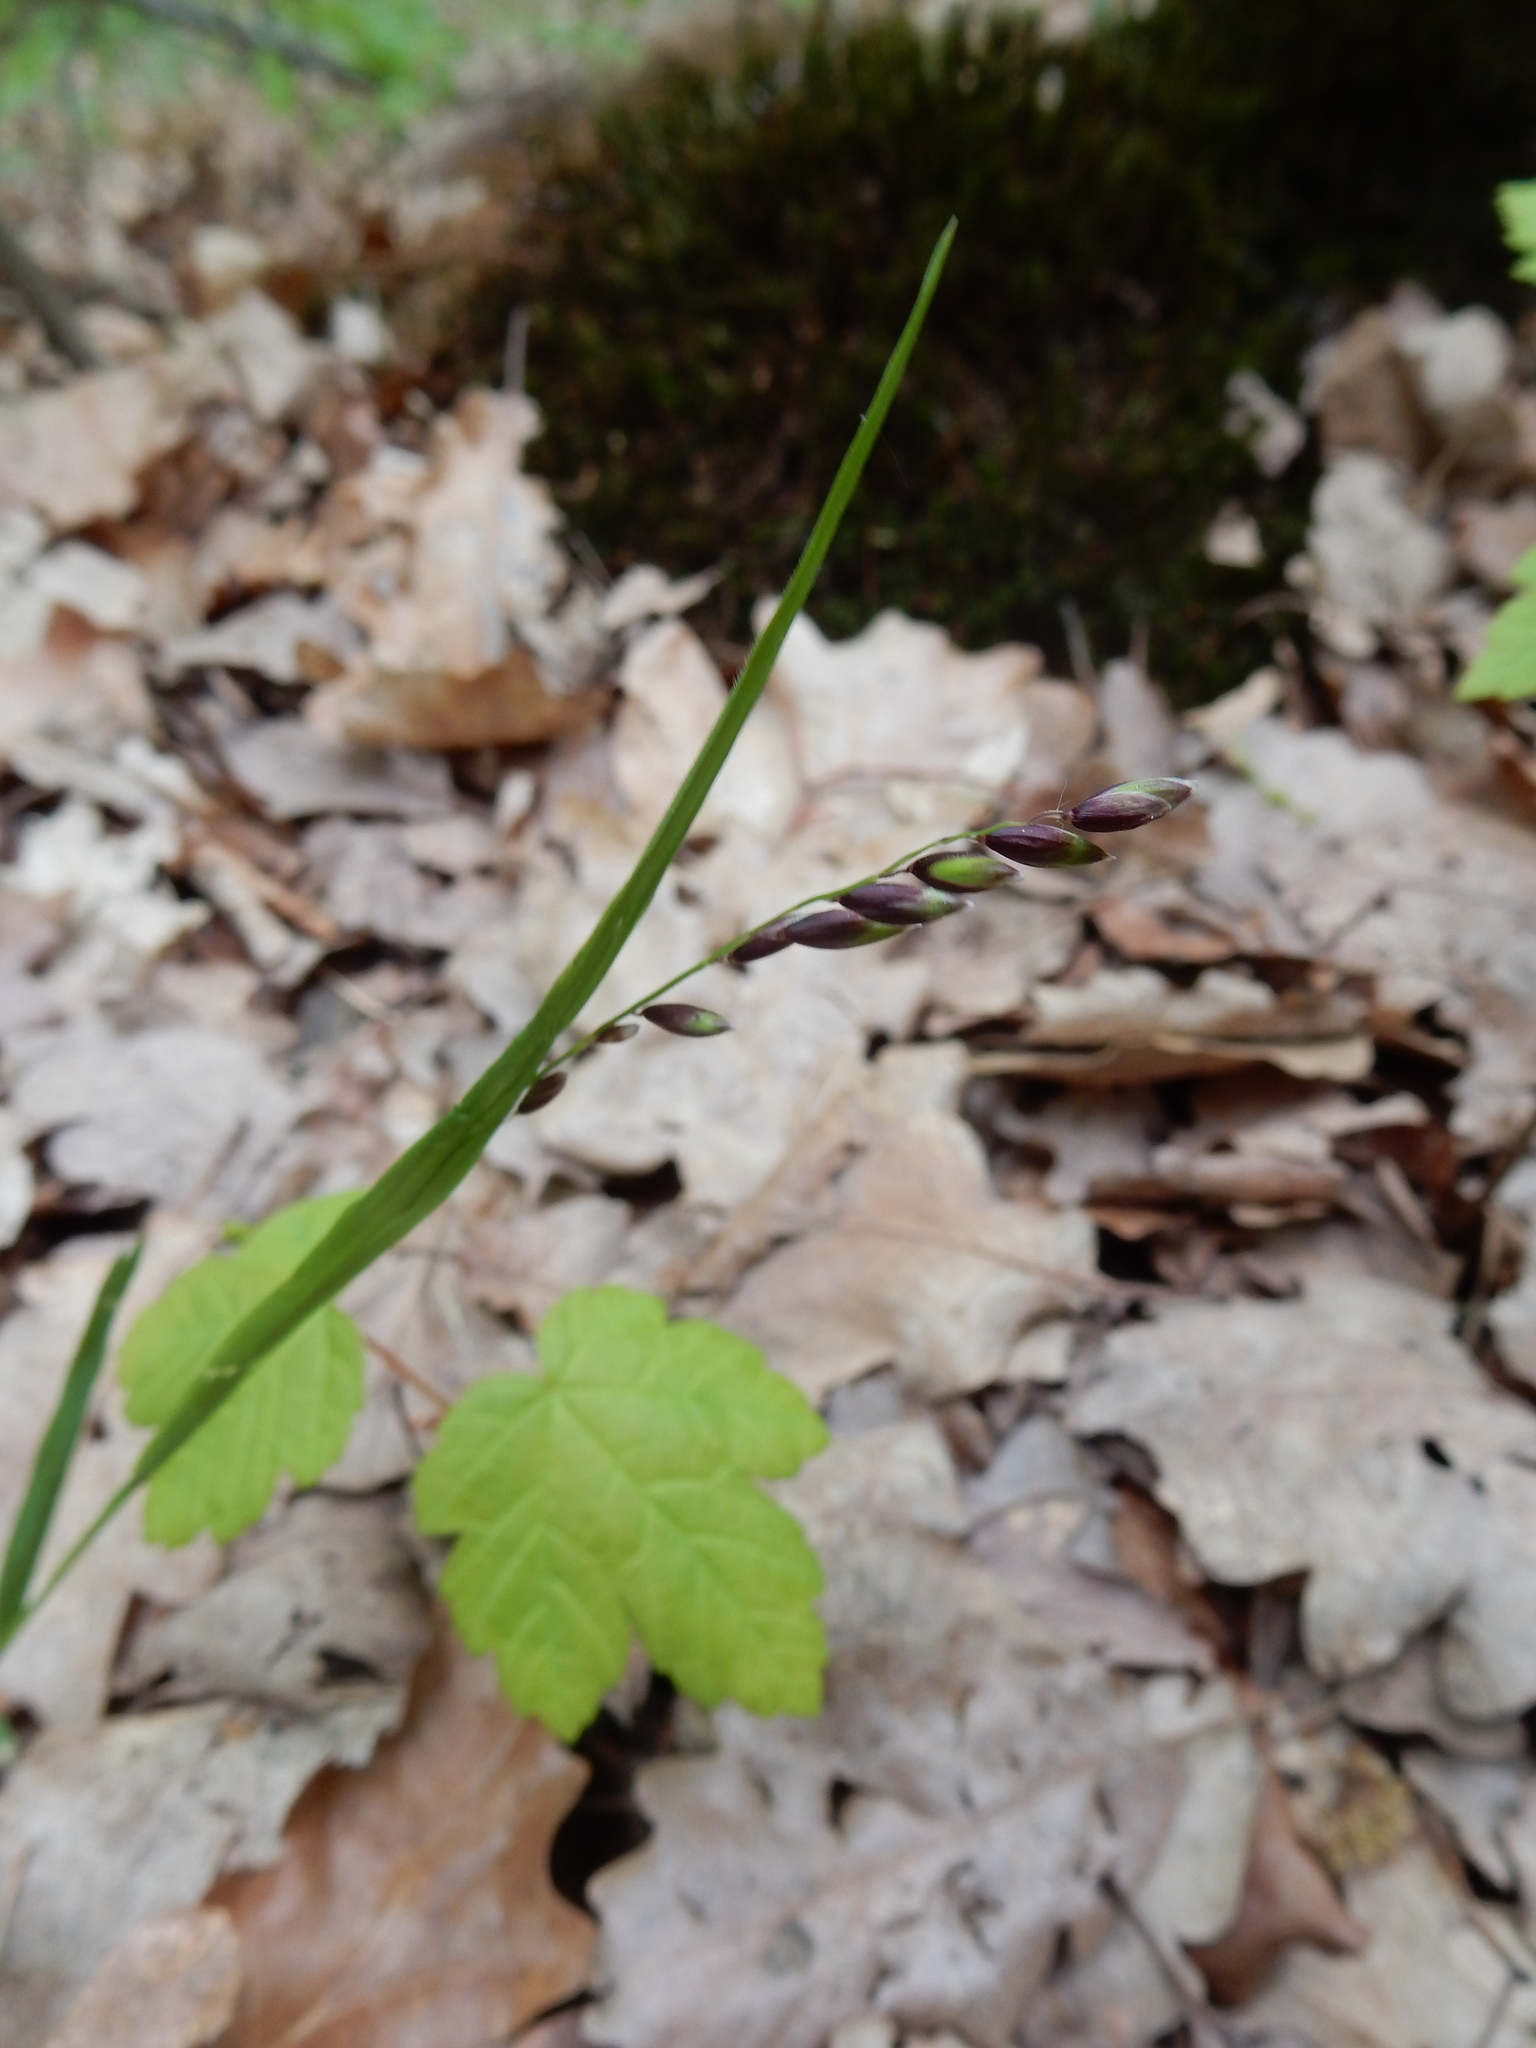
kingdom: Plantae
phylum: Tracheophyta
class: Liliopsida
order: Poales
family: Poaceae
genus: Melica
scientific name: Melica nutans
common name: Mountain melick
